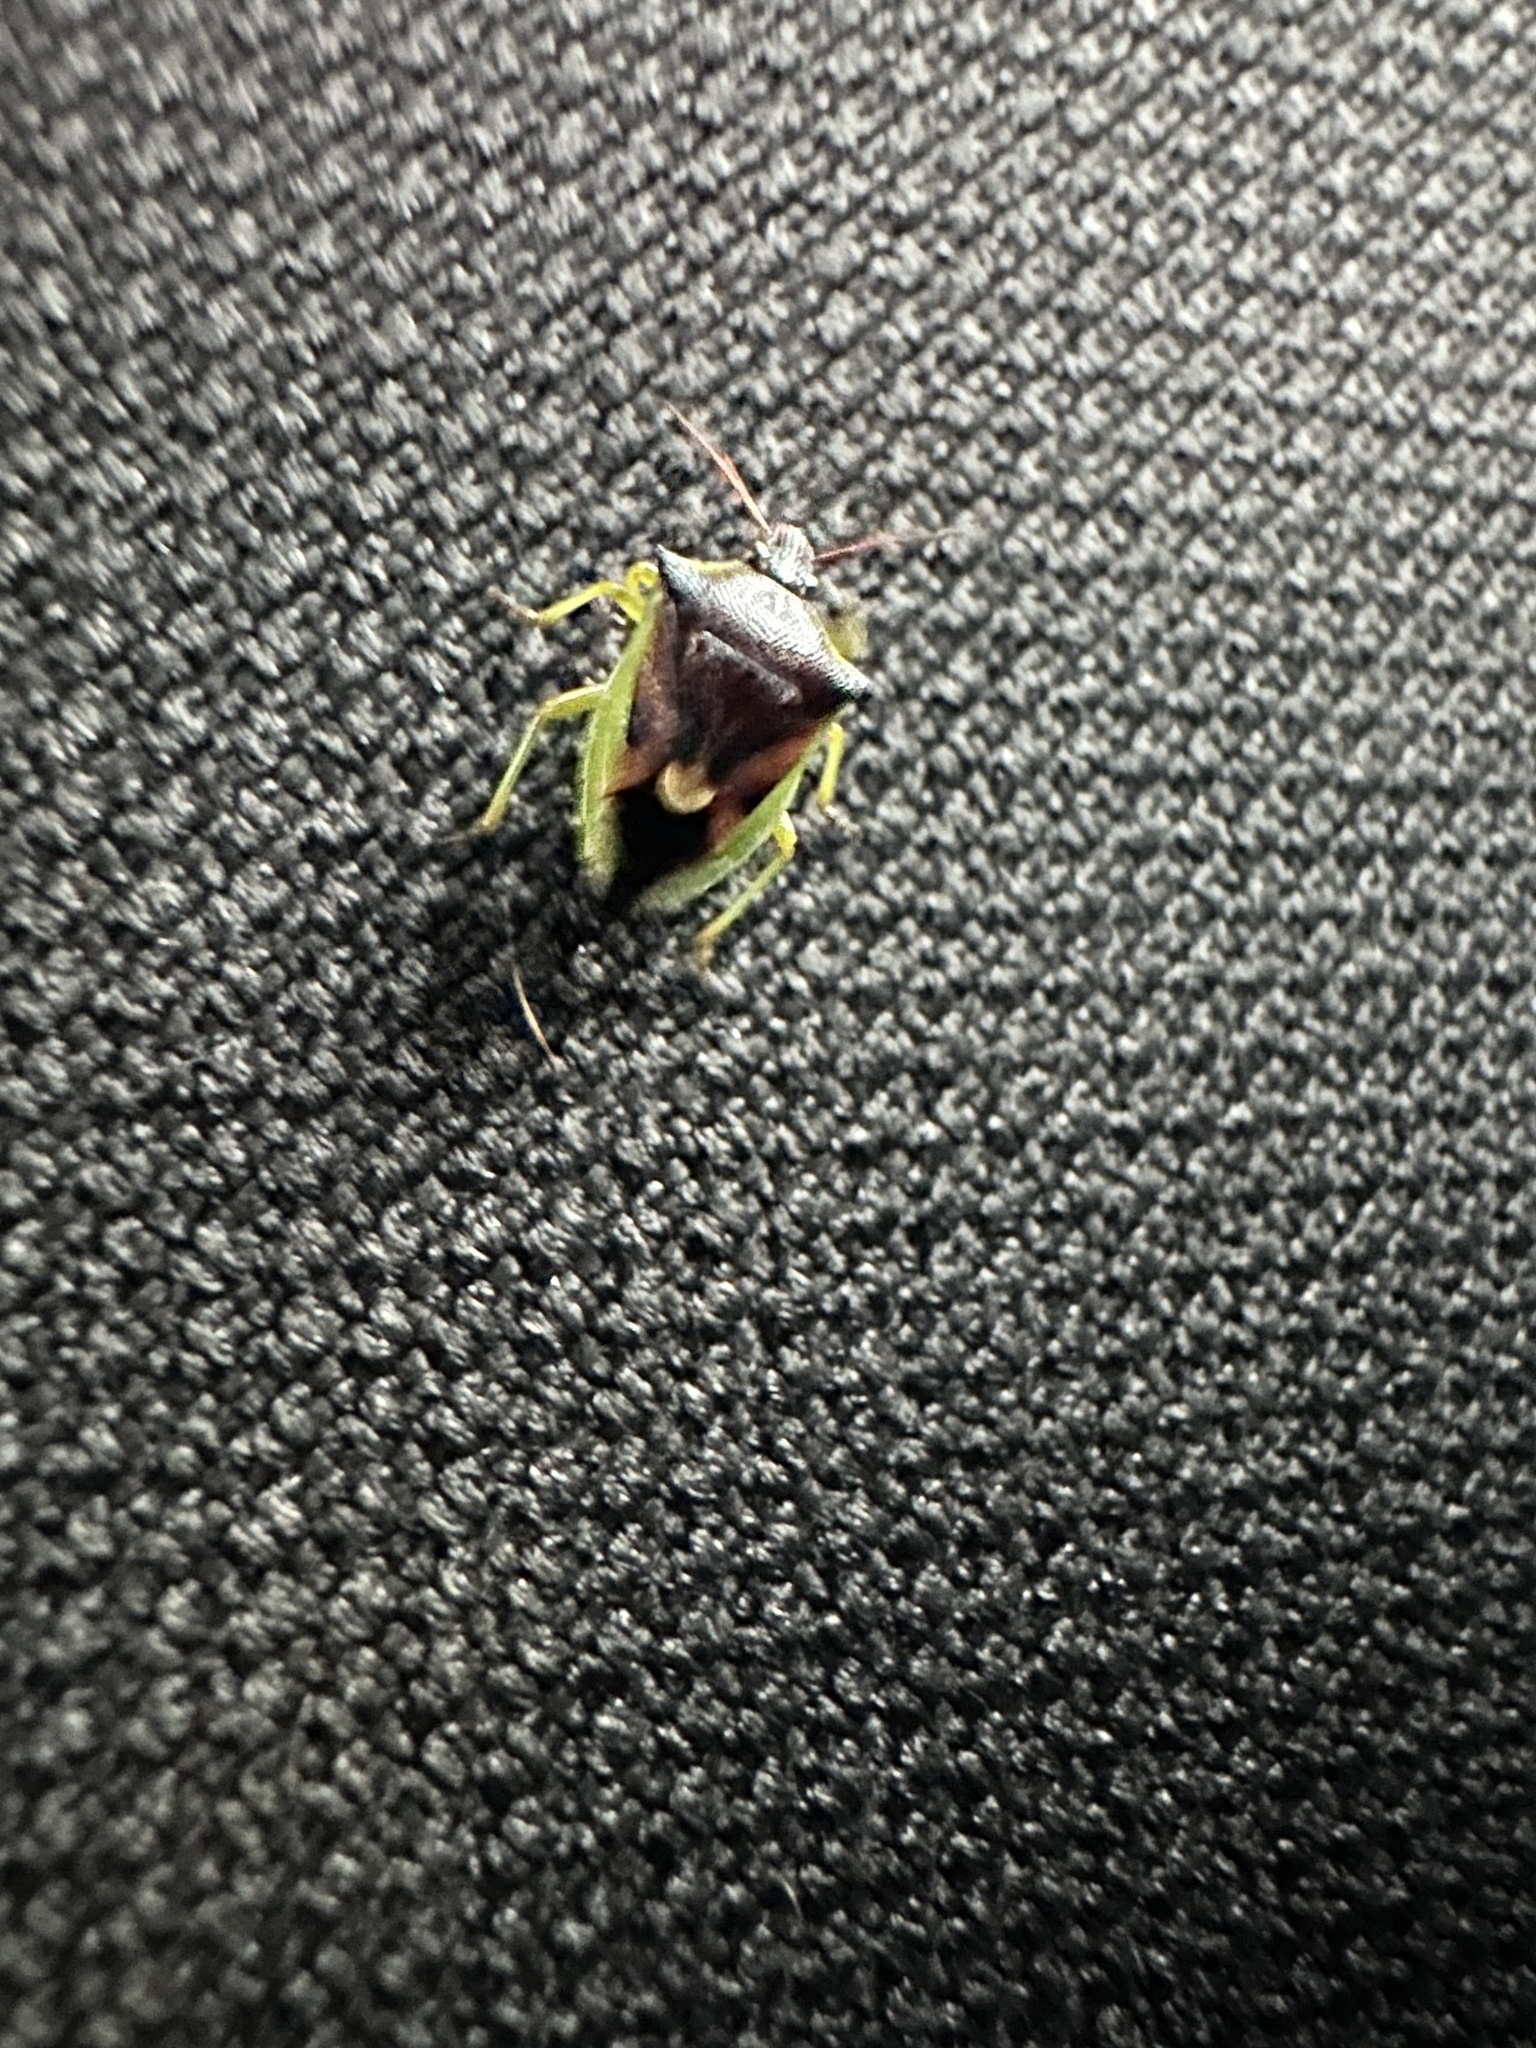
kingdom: Animalia
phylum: Arthropoda
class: Insecta
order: Hemiptera
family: Pentatomidae
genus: Tylospilus
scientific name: Tylospilus
